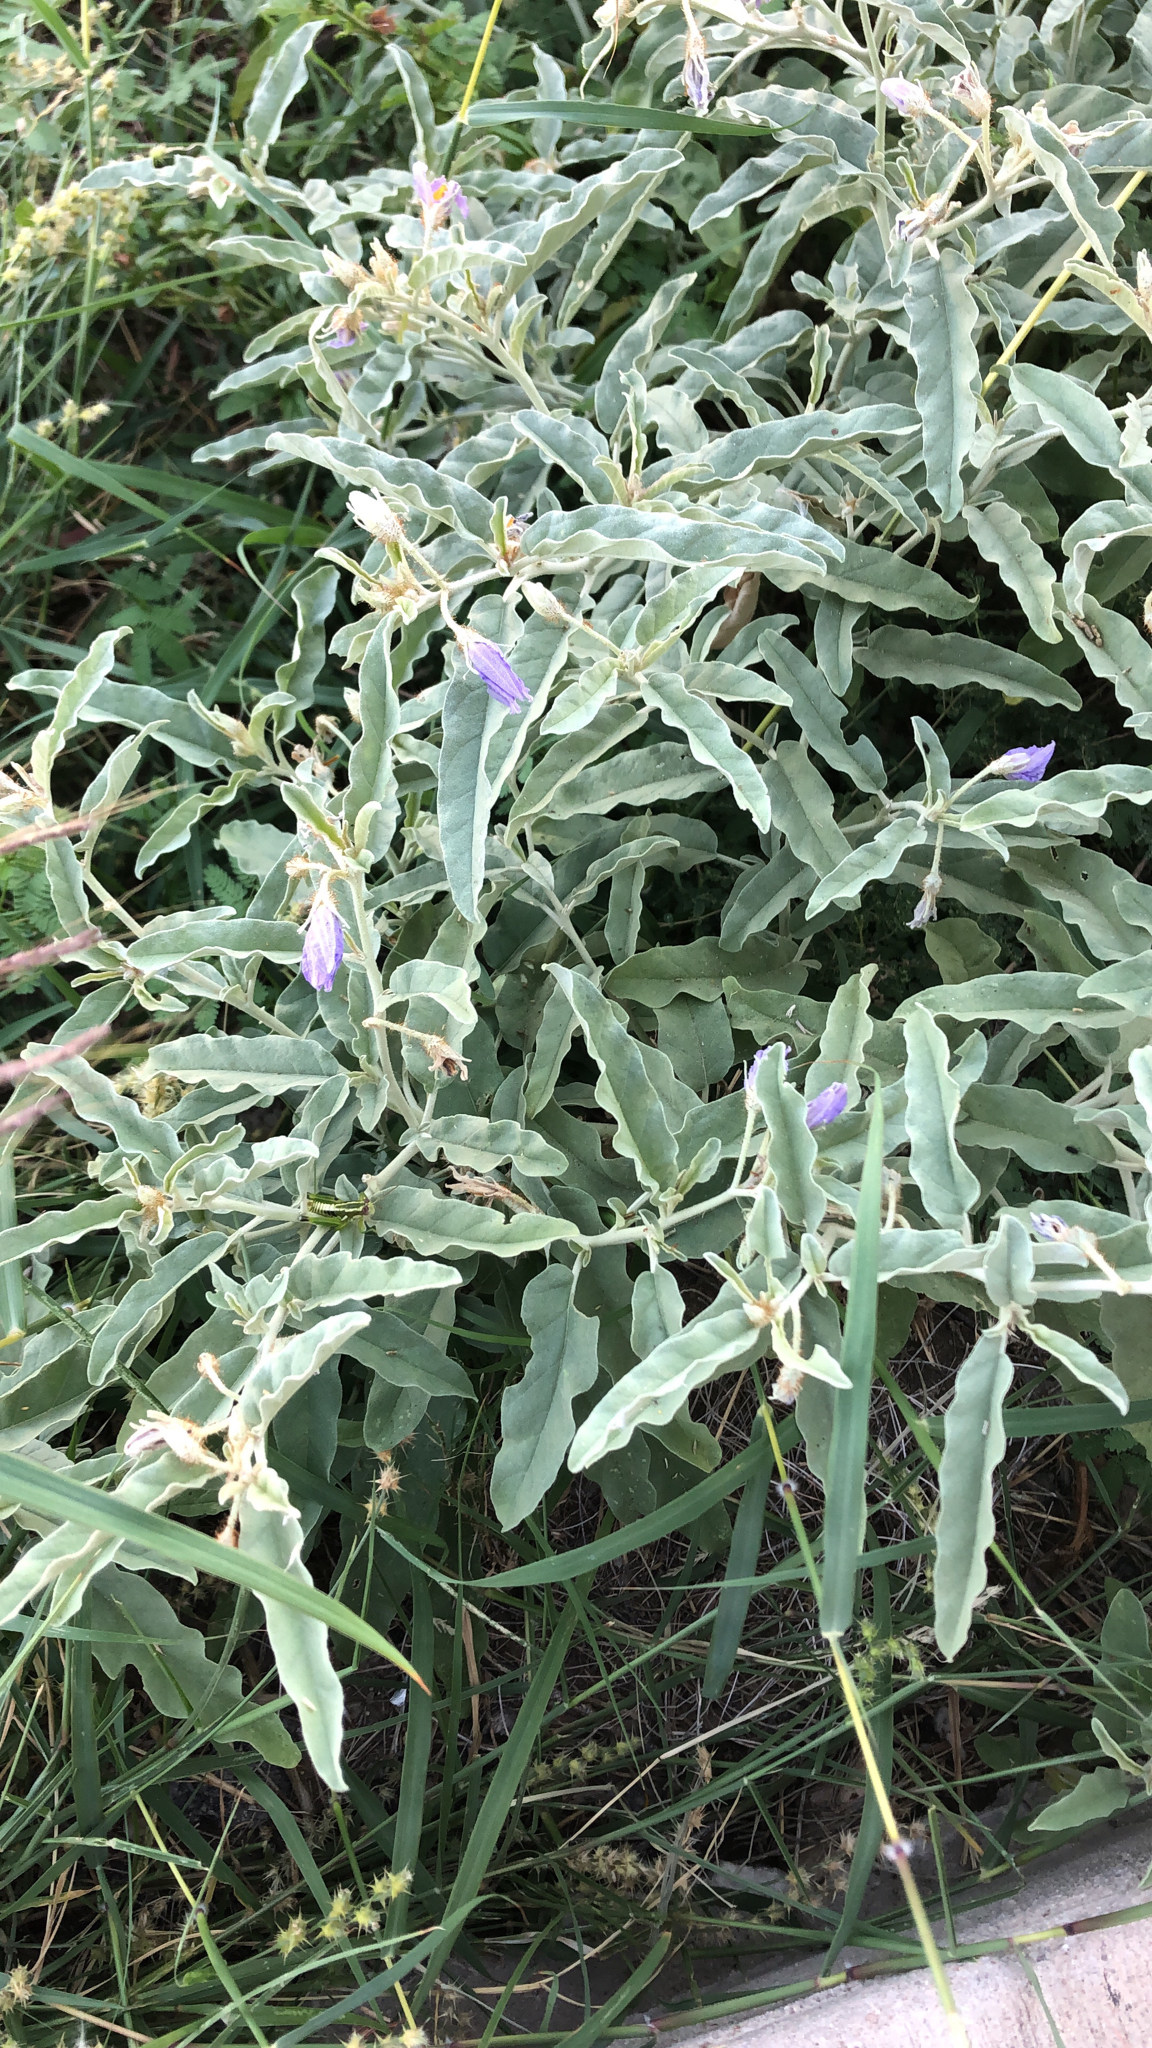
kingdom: Plantae
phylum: Tracheophyta
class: Magnoliopsida
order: Solanales
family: Solanaceae
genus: Solanum
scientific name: Solanum elaeagnifolium
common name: Silverleaf nightshade
